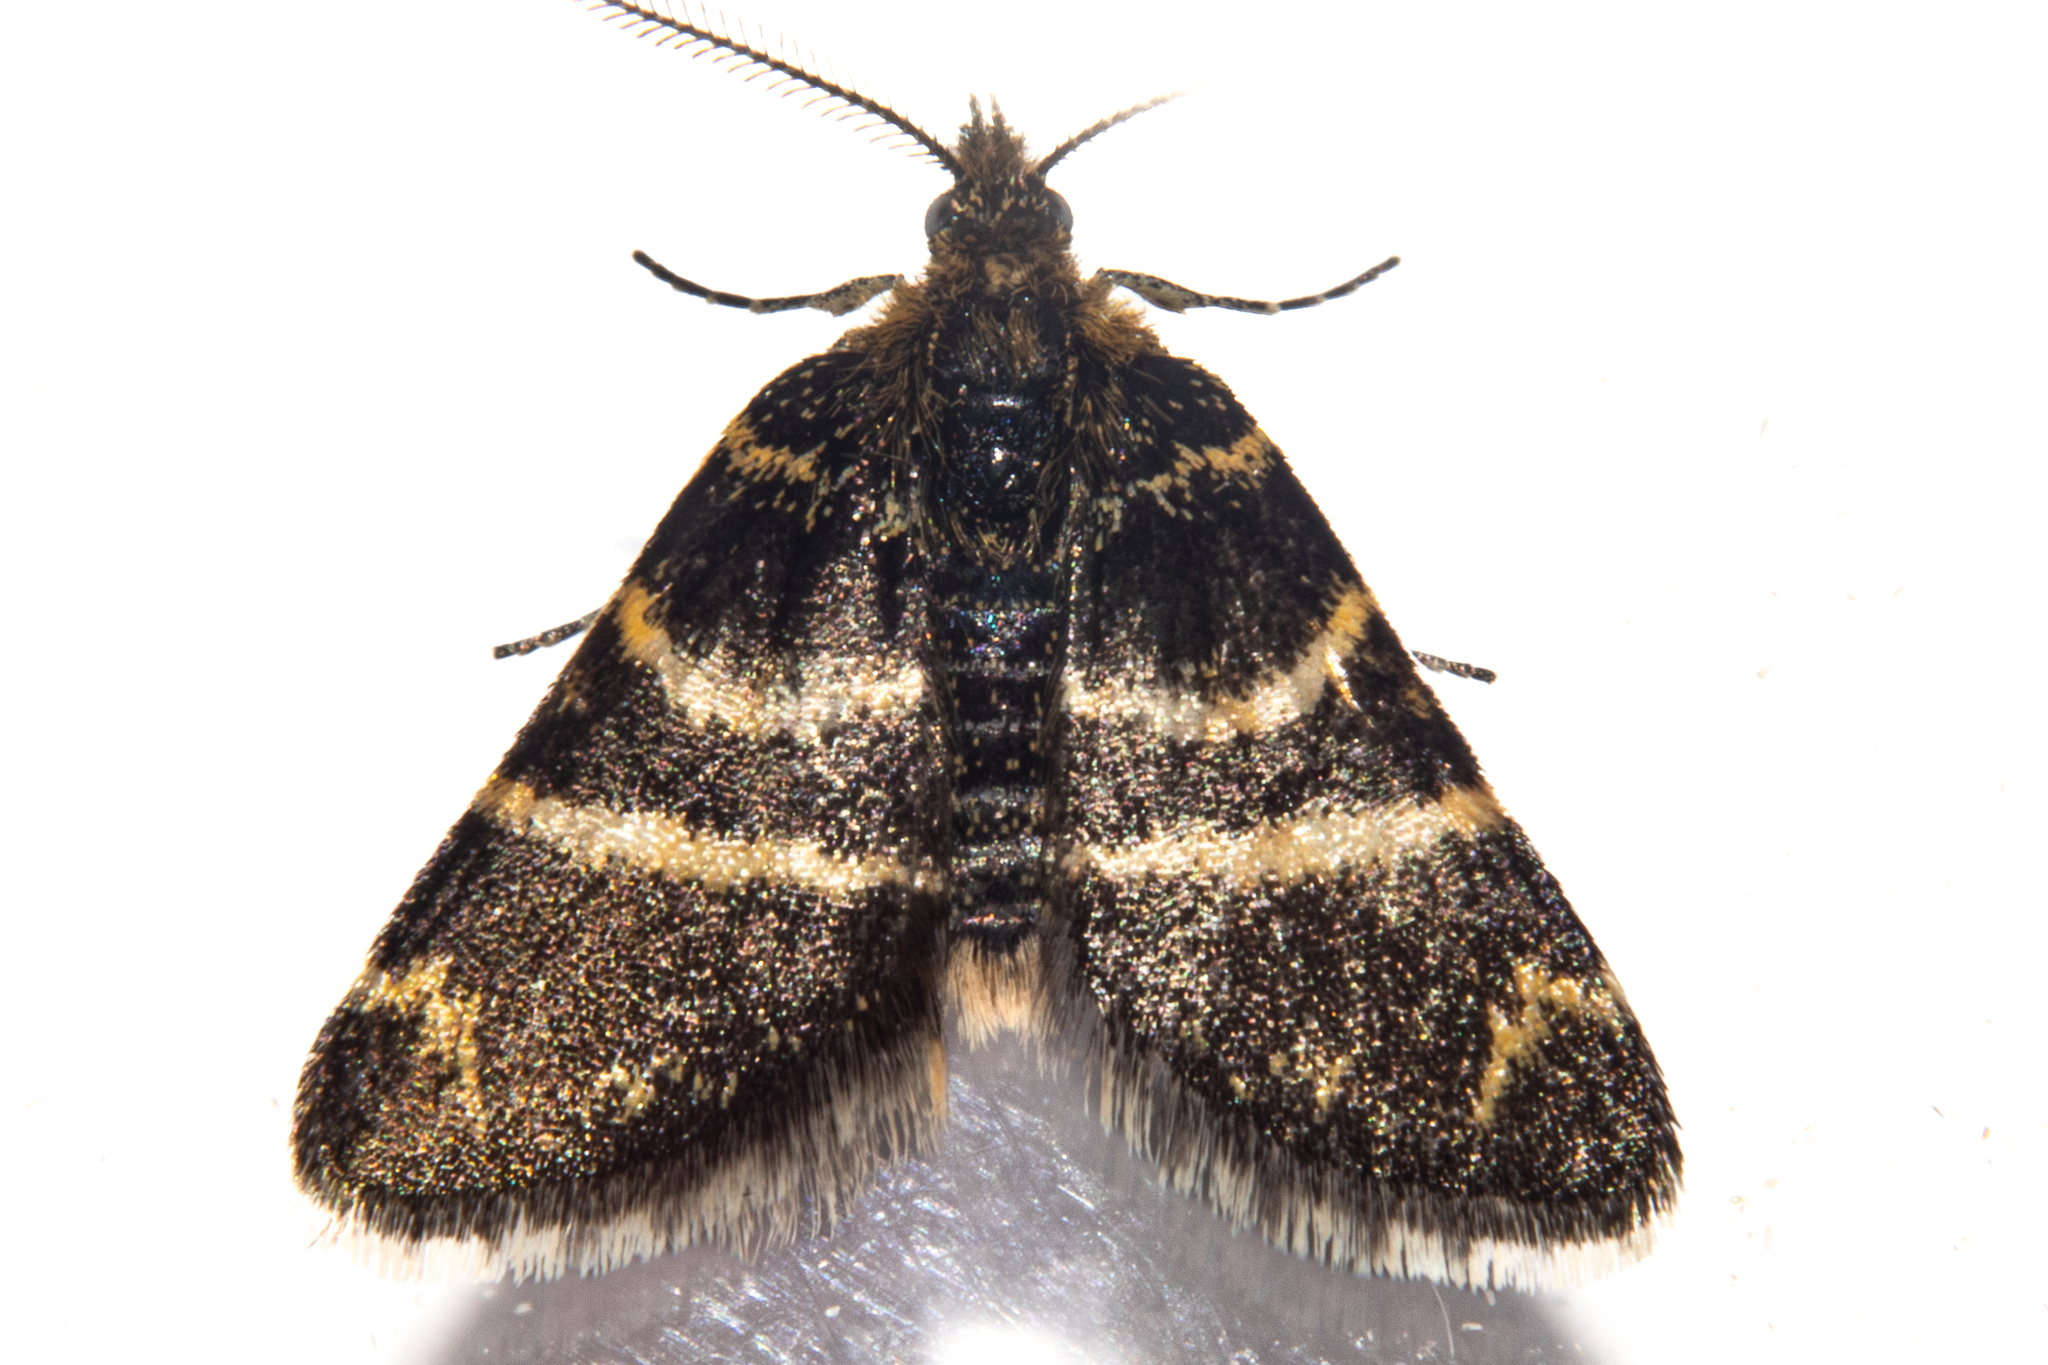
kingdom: Animalia
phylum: Arthropoda
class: Insecta
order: Lepidoptera
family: Geometridae
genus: Notoreas
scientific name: Notoreas ortholeuca
